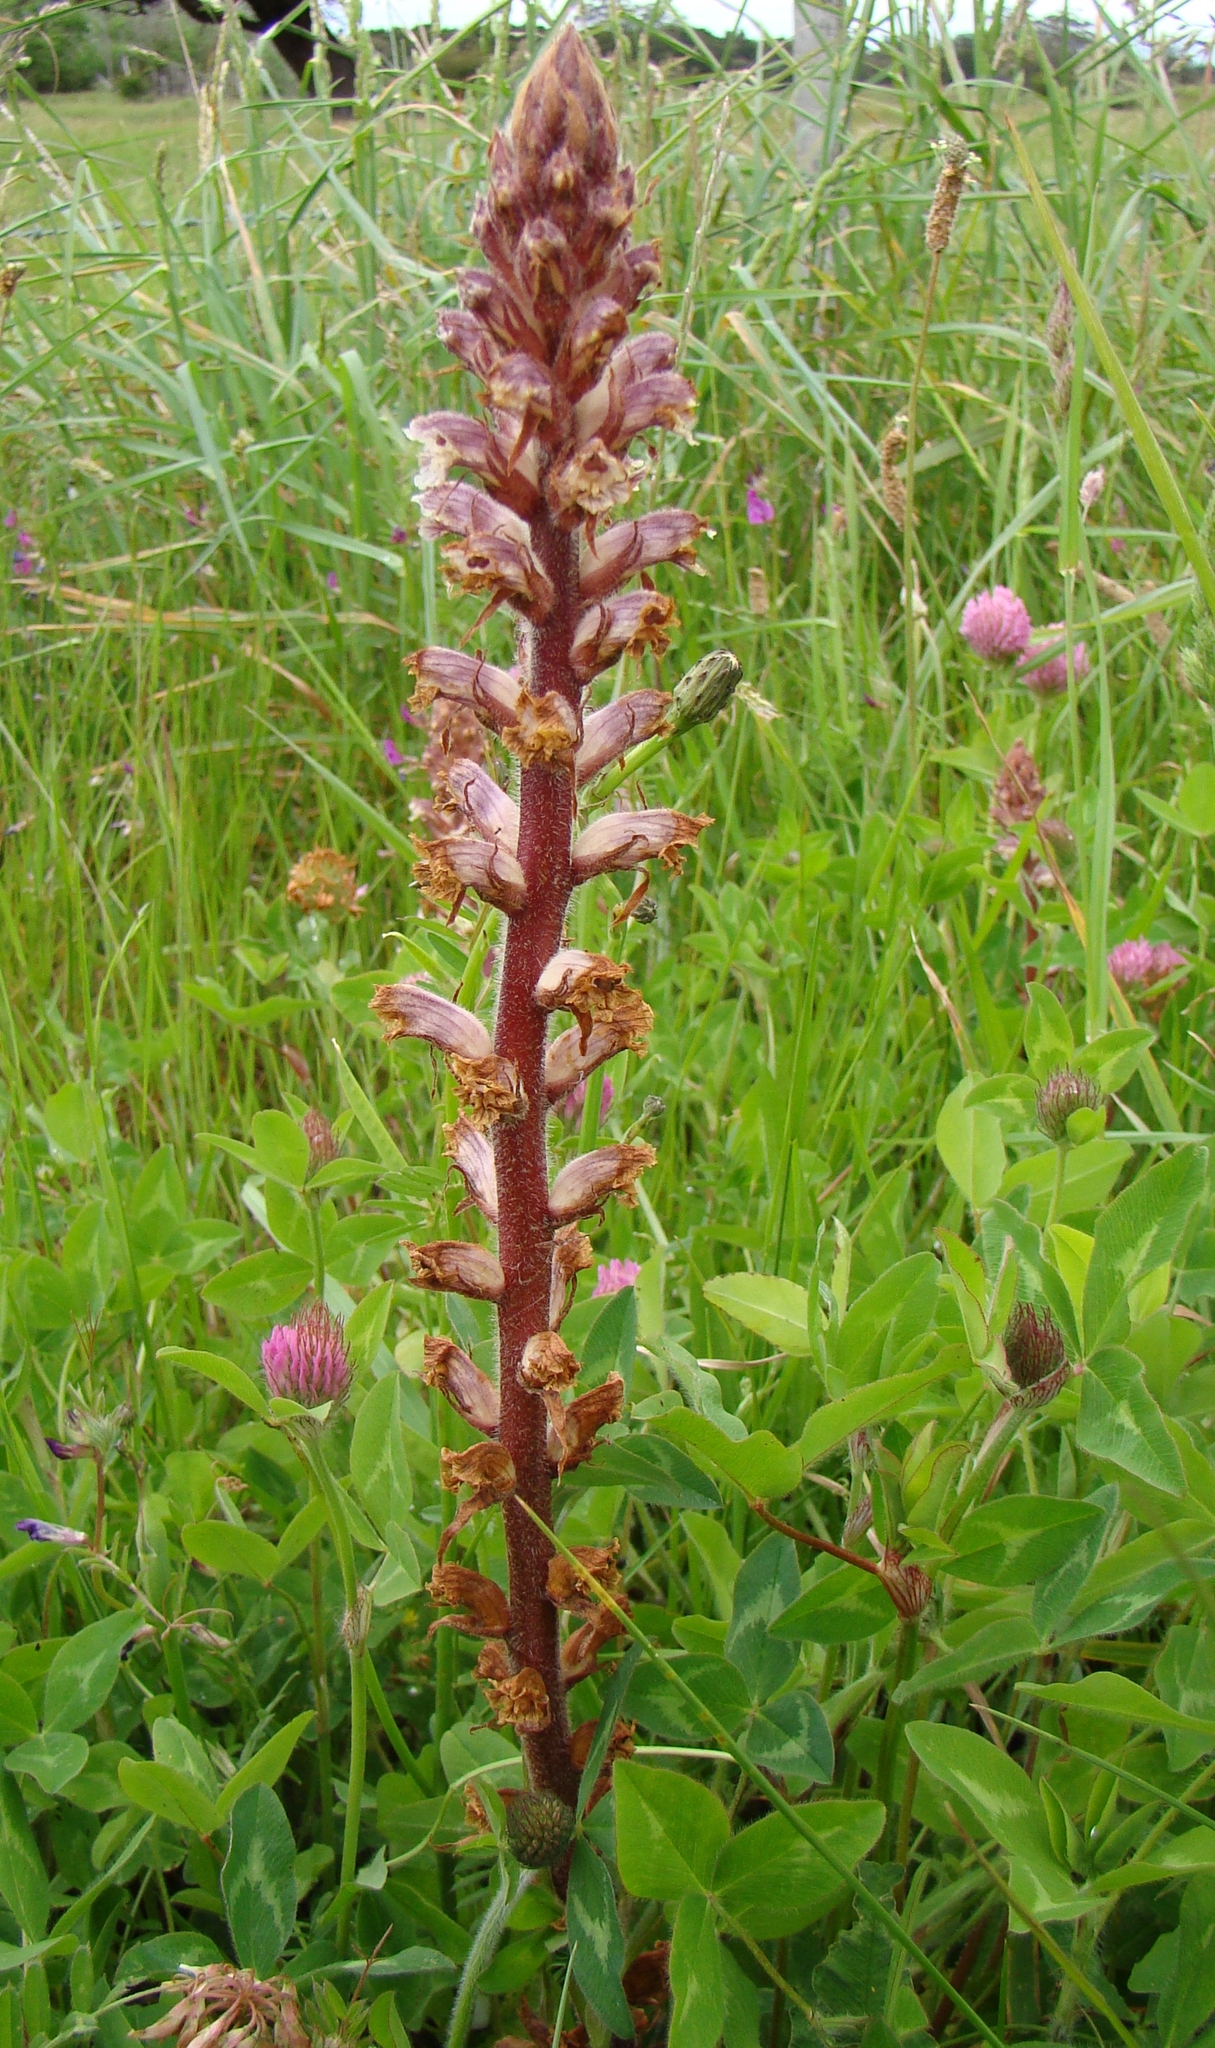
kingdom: Plantae
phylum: Tracheophyta
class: Magnoliopsida
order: Lamiales
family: Orobanchaceae
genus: Orobanche
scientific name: Orobanche minor
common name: Common broomrape
